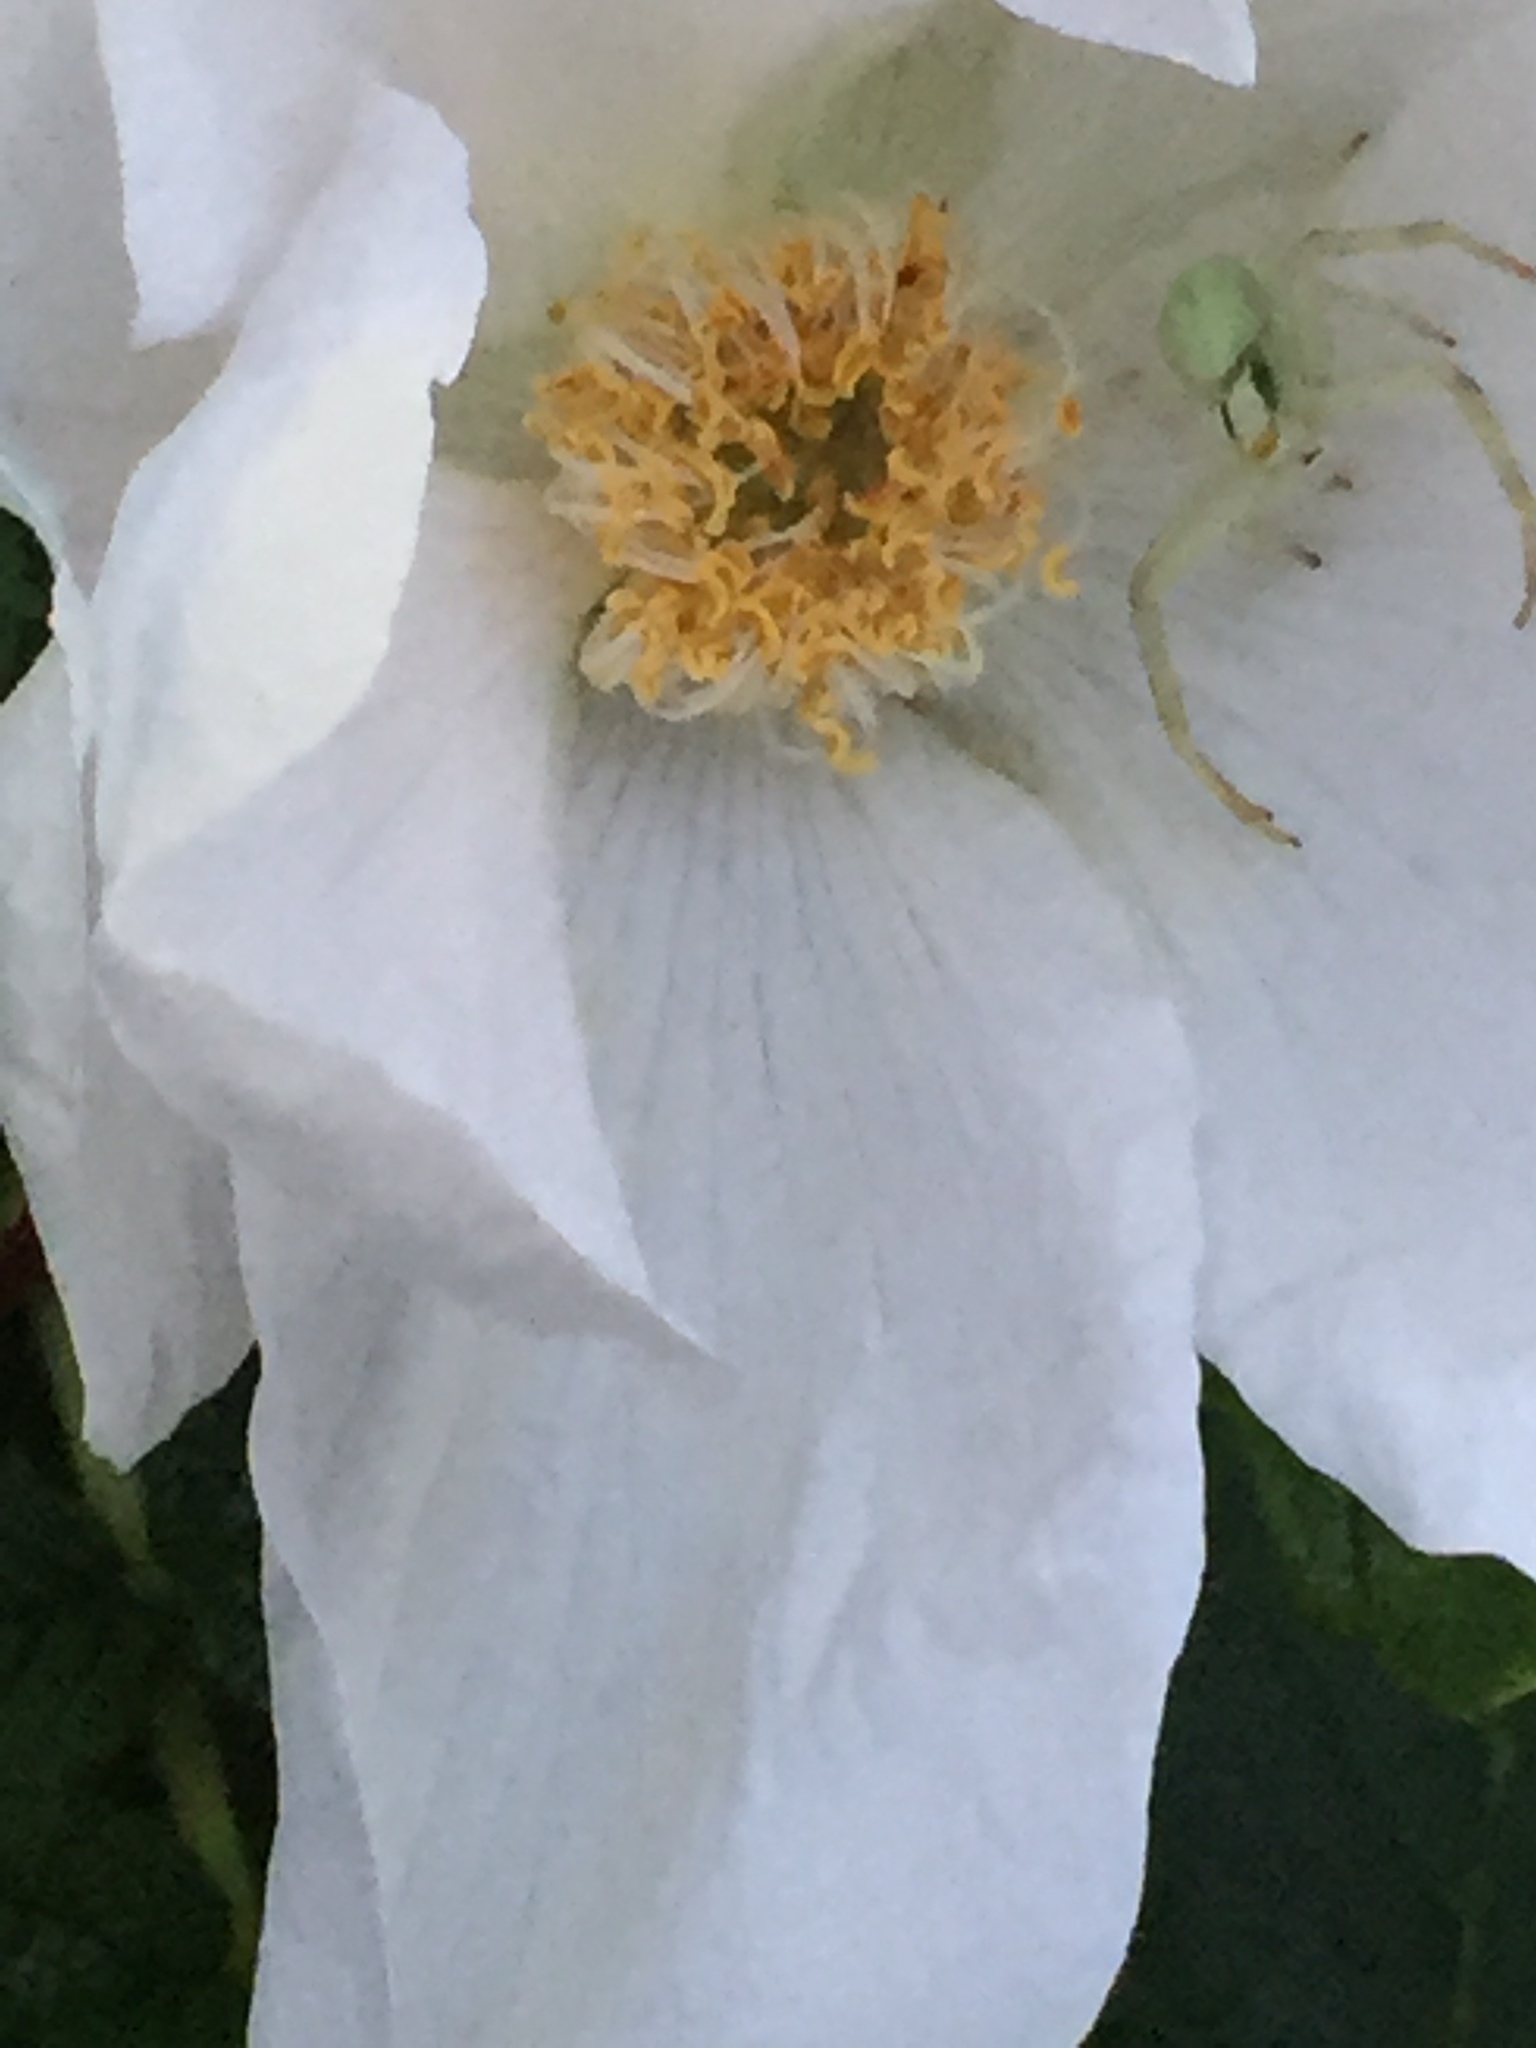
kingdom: Animalia
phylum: Arthropoda
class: Arachnida
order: Araneae
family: Thomisidae
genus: Misumena
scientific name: Misumena vatia
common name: Goldenrod crab spider
